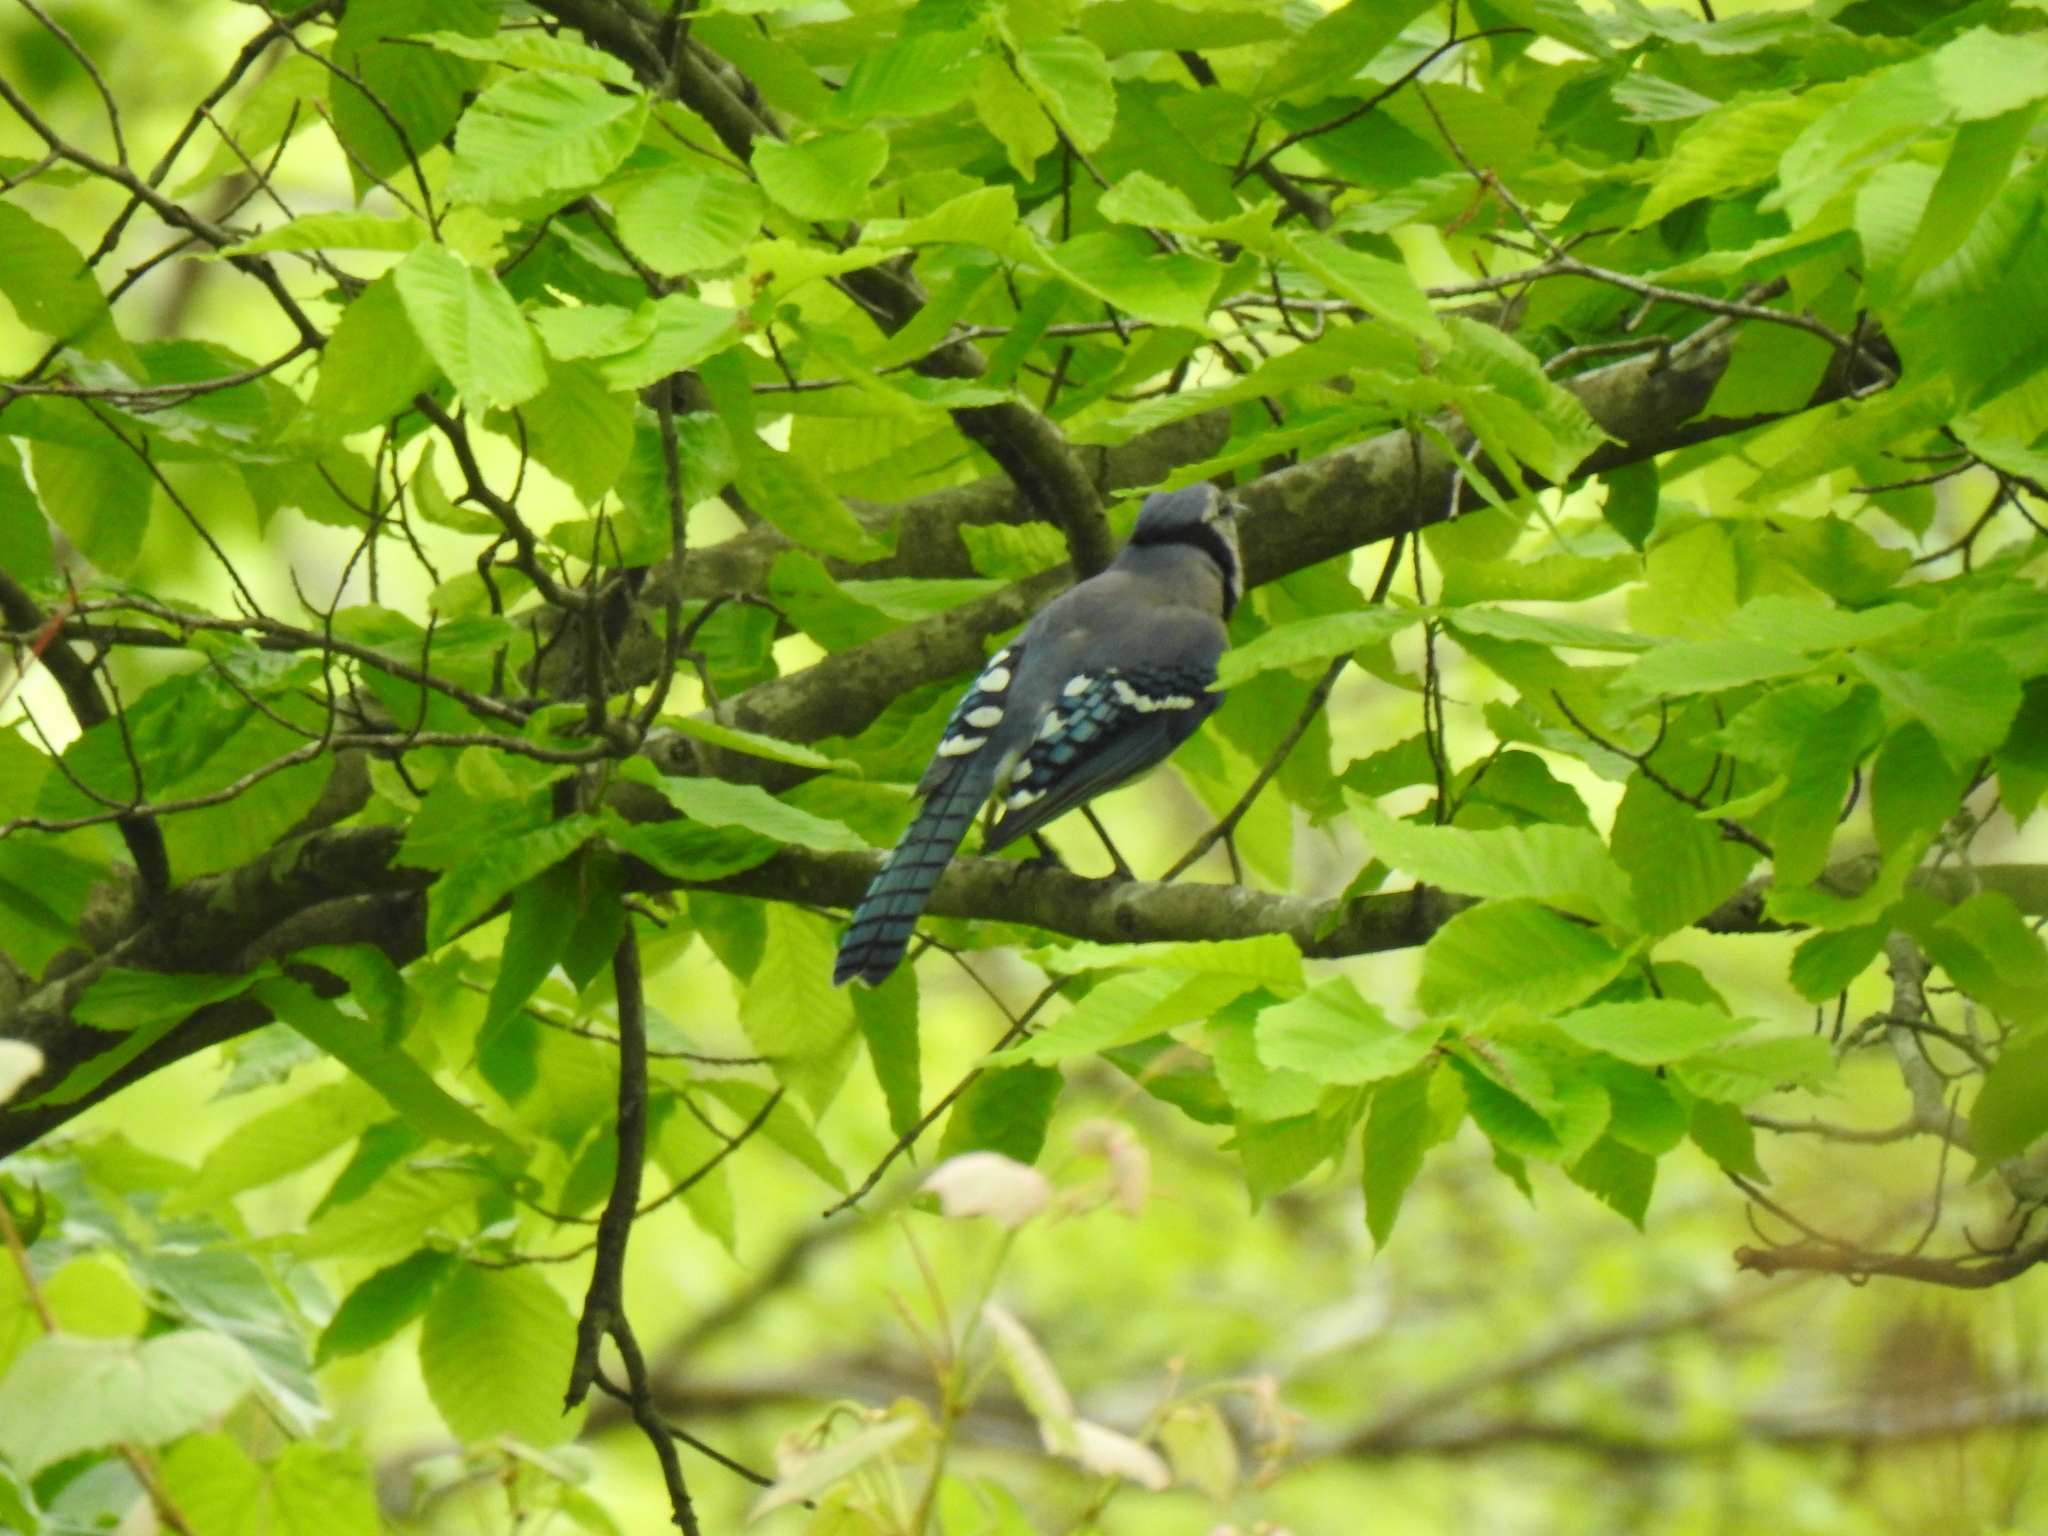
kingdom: Animalia
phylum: Chordata
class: Aves
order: Passeriformes
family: Corvidae
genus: Cyanocitta
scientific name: Cyanocitta cristata
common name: Blue jay
